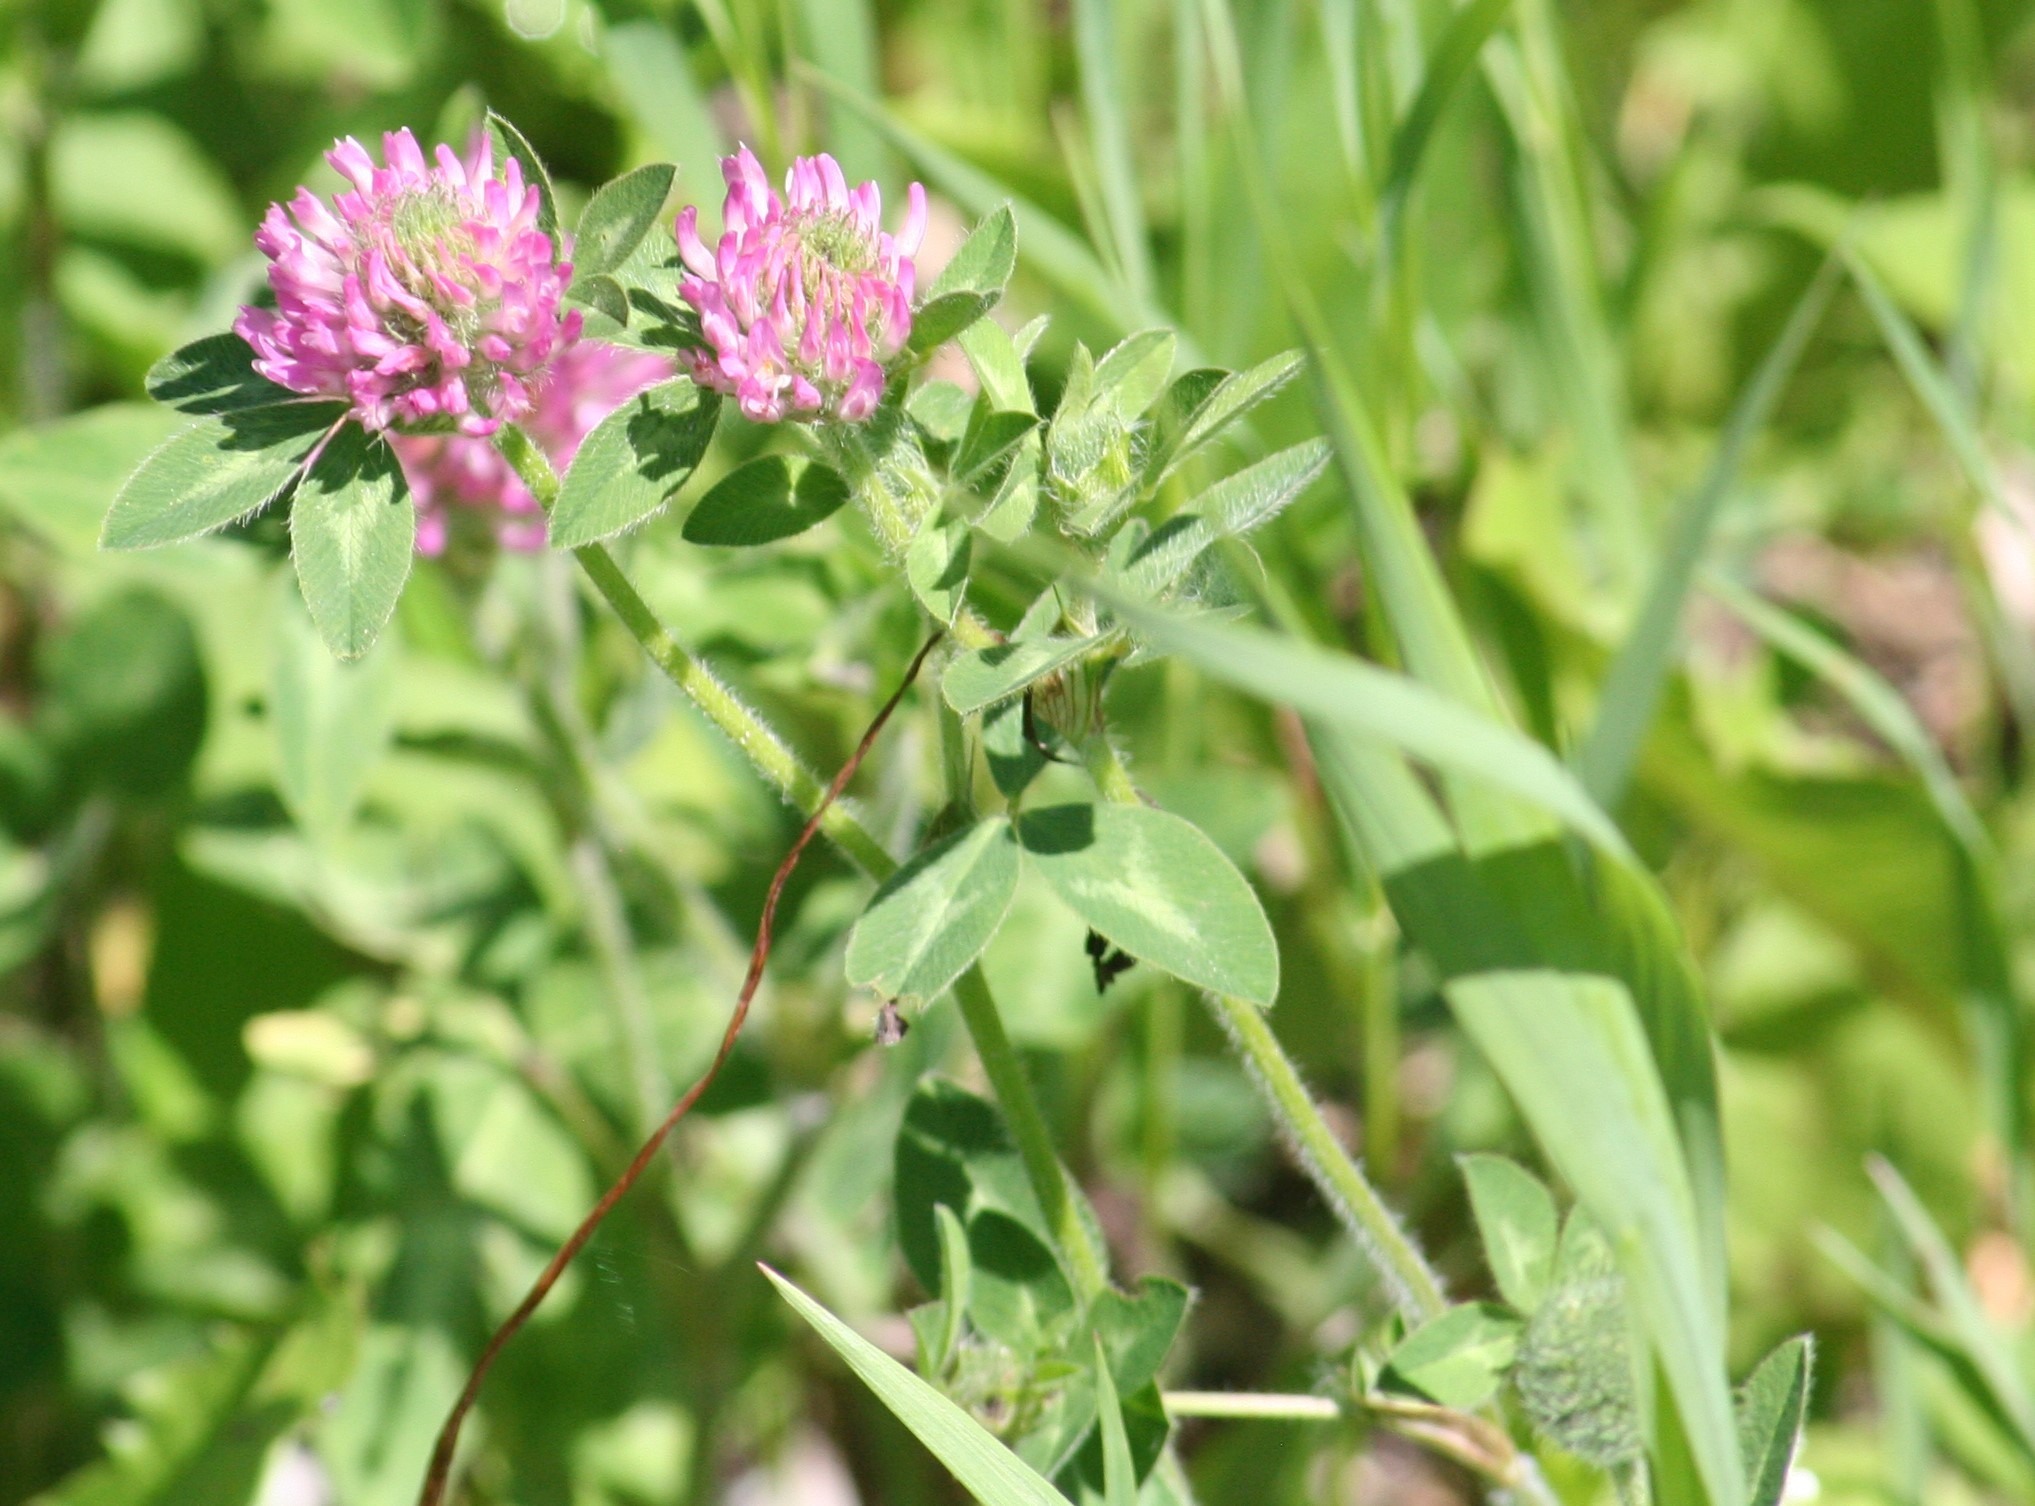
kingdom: Plantae
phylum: Tracheophyta
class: Magnoliopsida
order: Fabales
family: Fabaceae
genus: Trifolium
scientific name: Trifolium pratense
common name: Red clover
